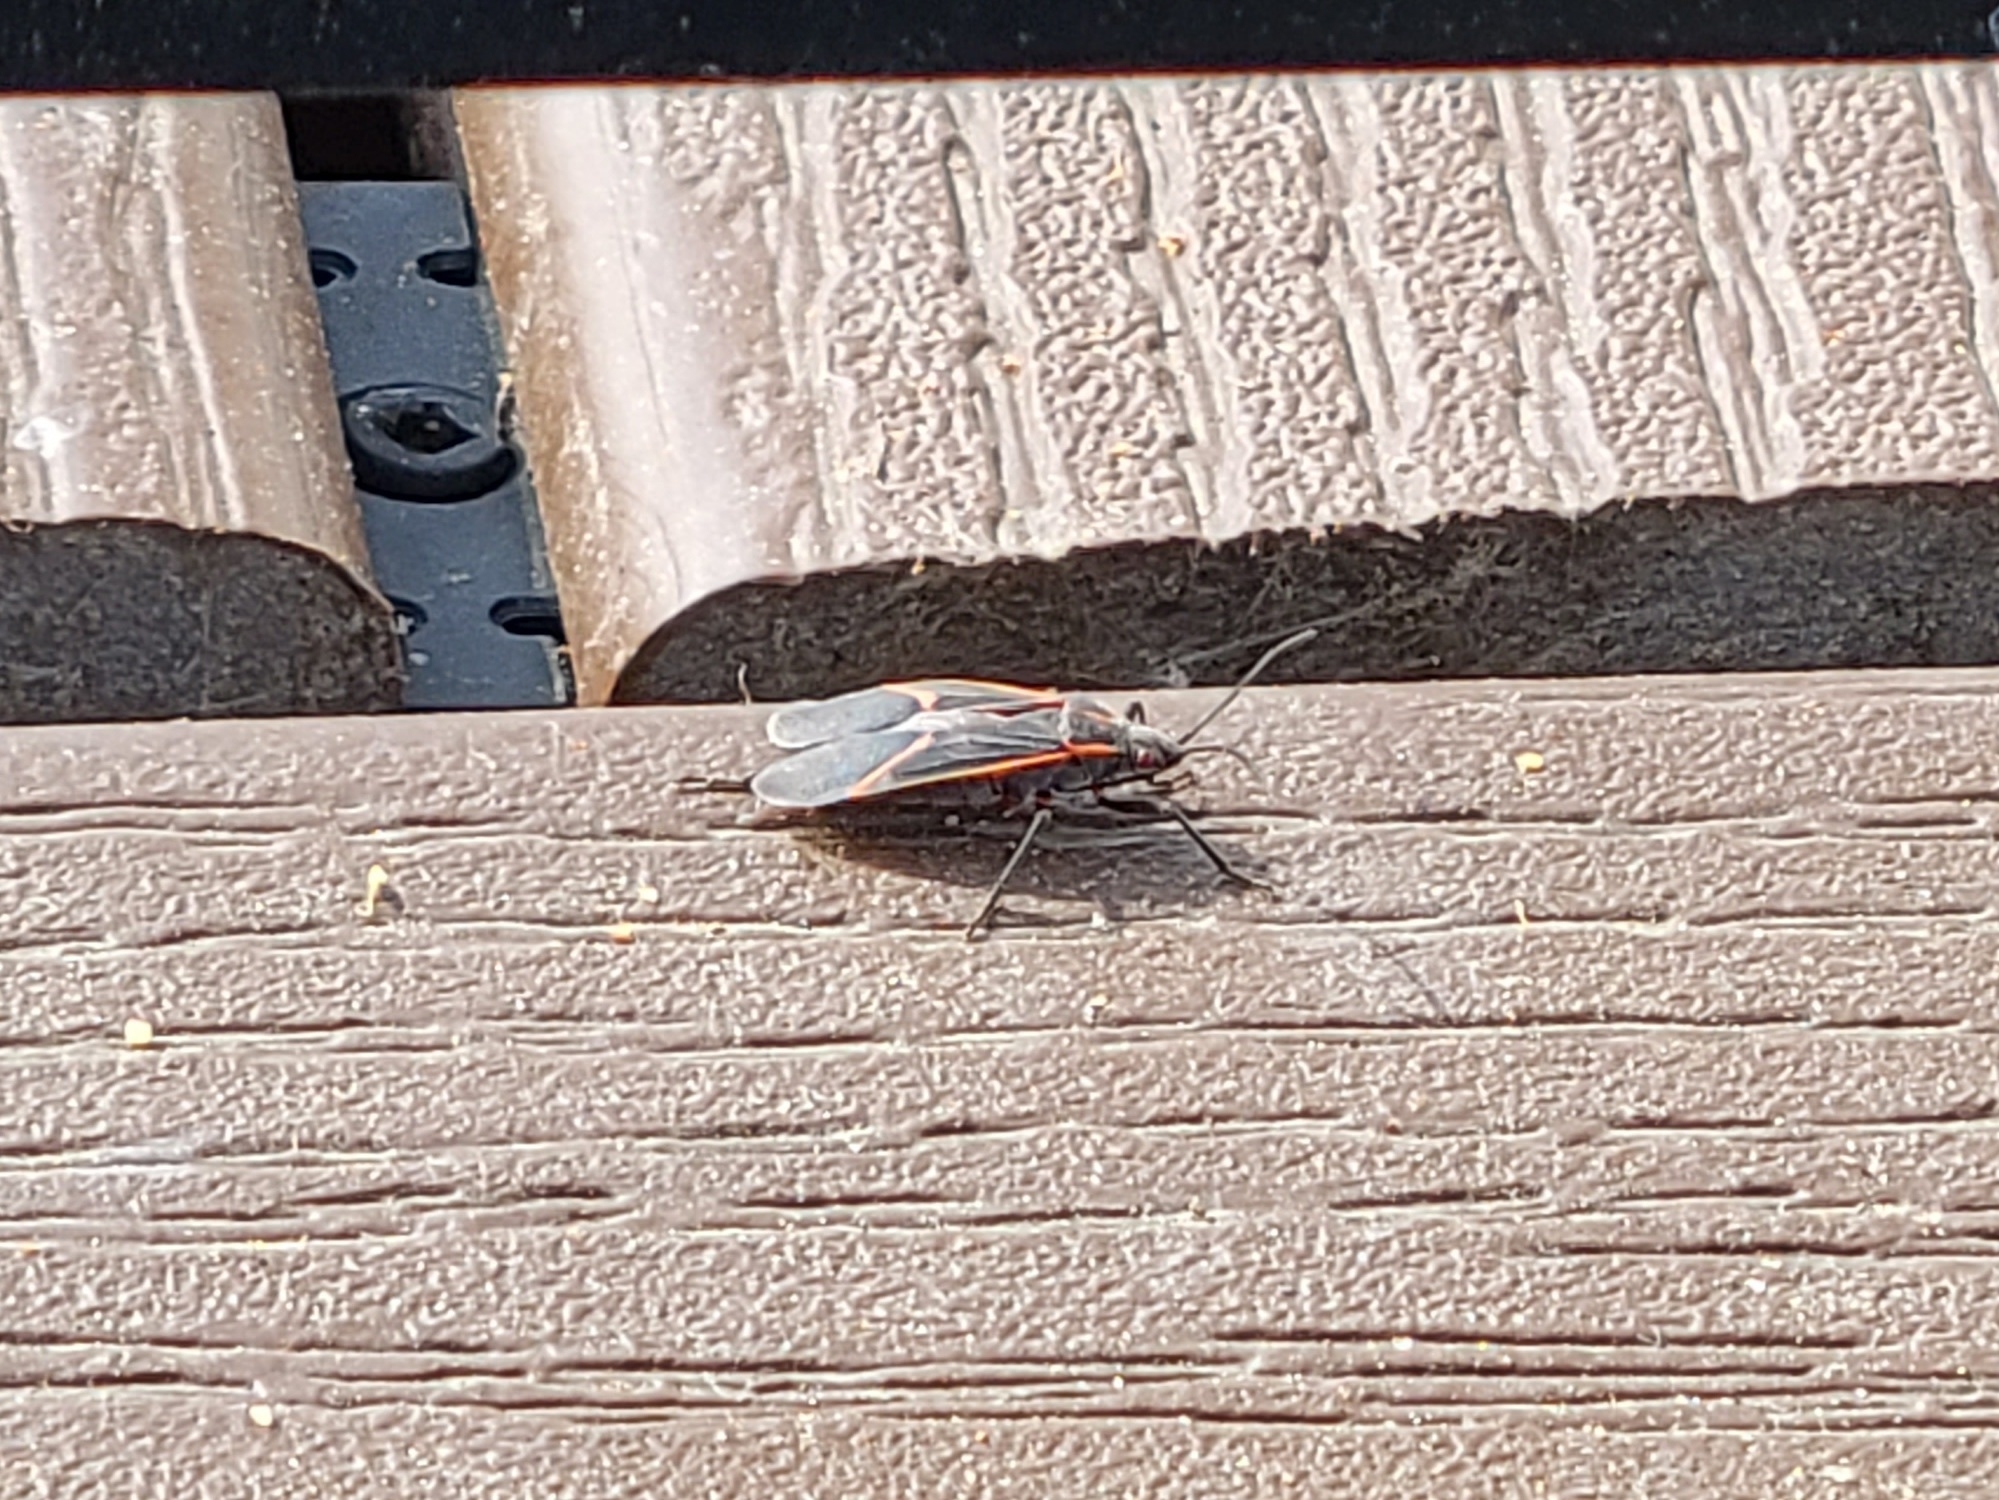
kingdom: Animalia
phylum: Arthropoda
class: Insecta
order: Hemiptera
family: Rhopalidae
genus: Boisea
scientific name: Boisea trivittata
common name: Boxelder bug
